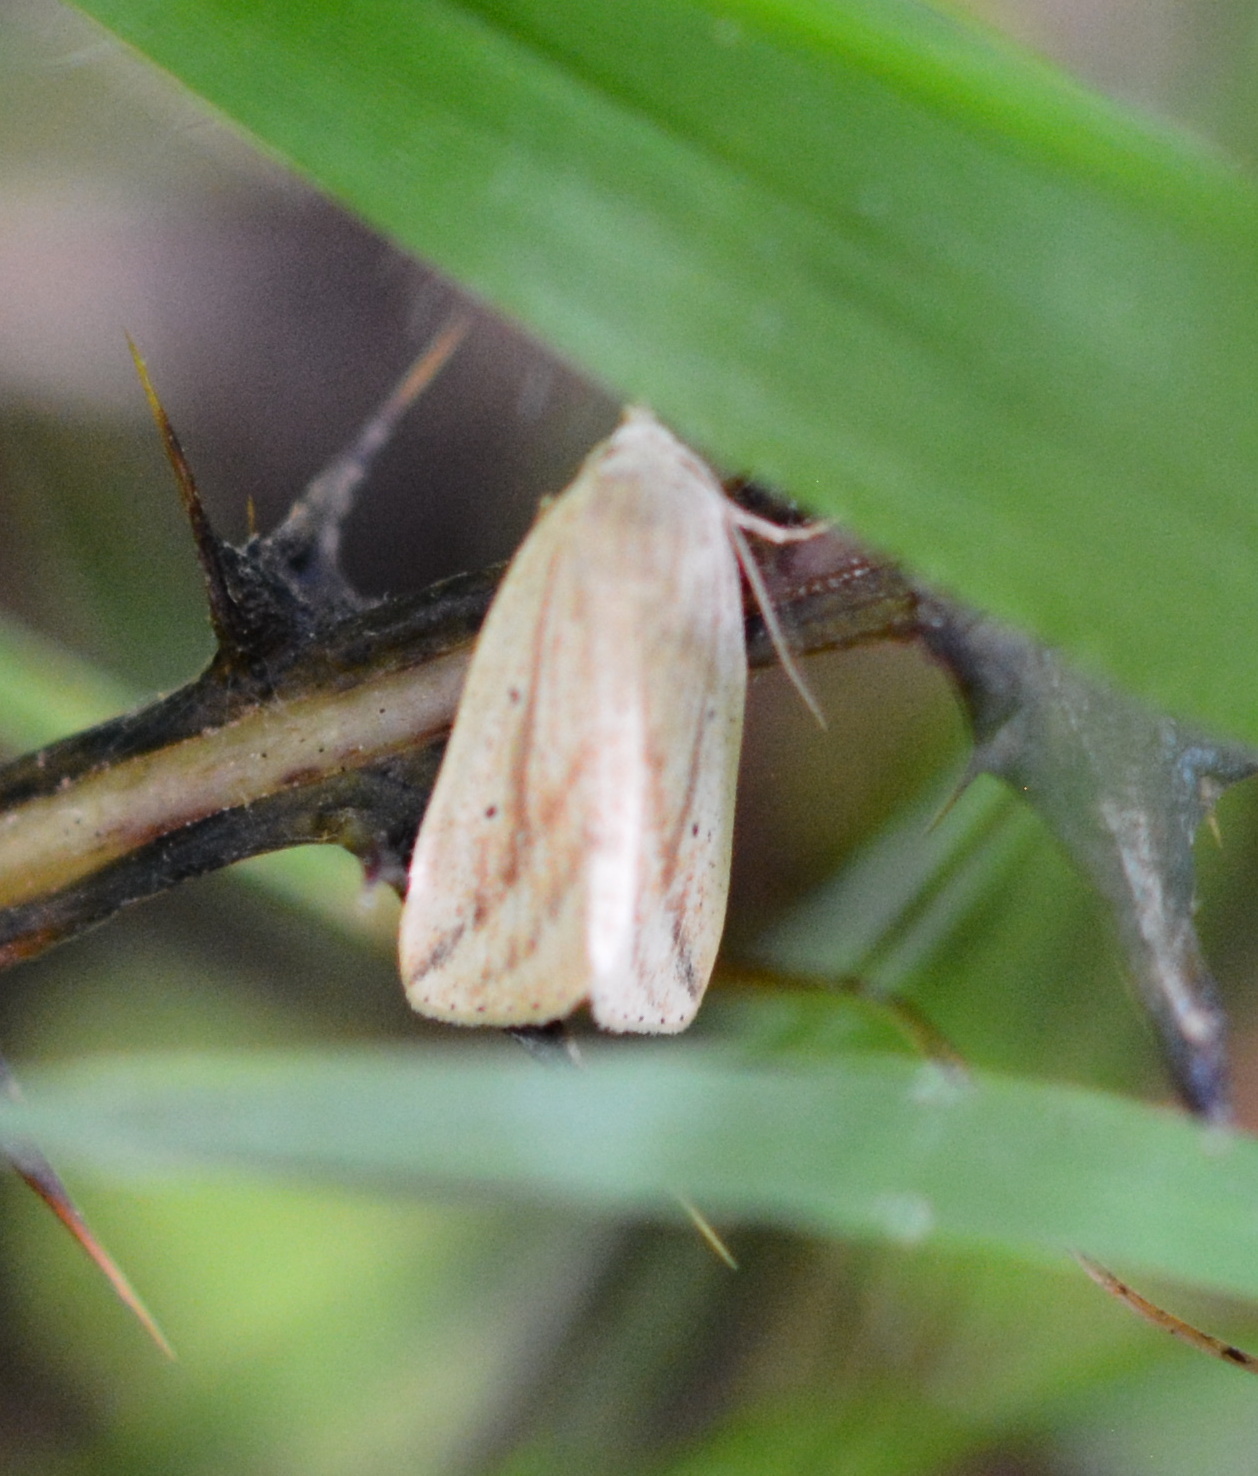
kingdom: Animalia
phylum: Arthropoda
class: Insecta
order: Lepidoptera
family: Noctuidae
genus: Amolita
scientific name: Amolita obliqua
